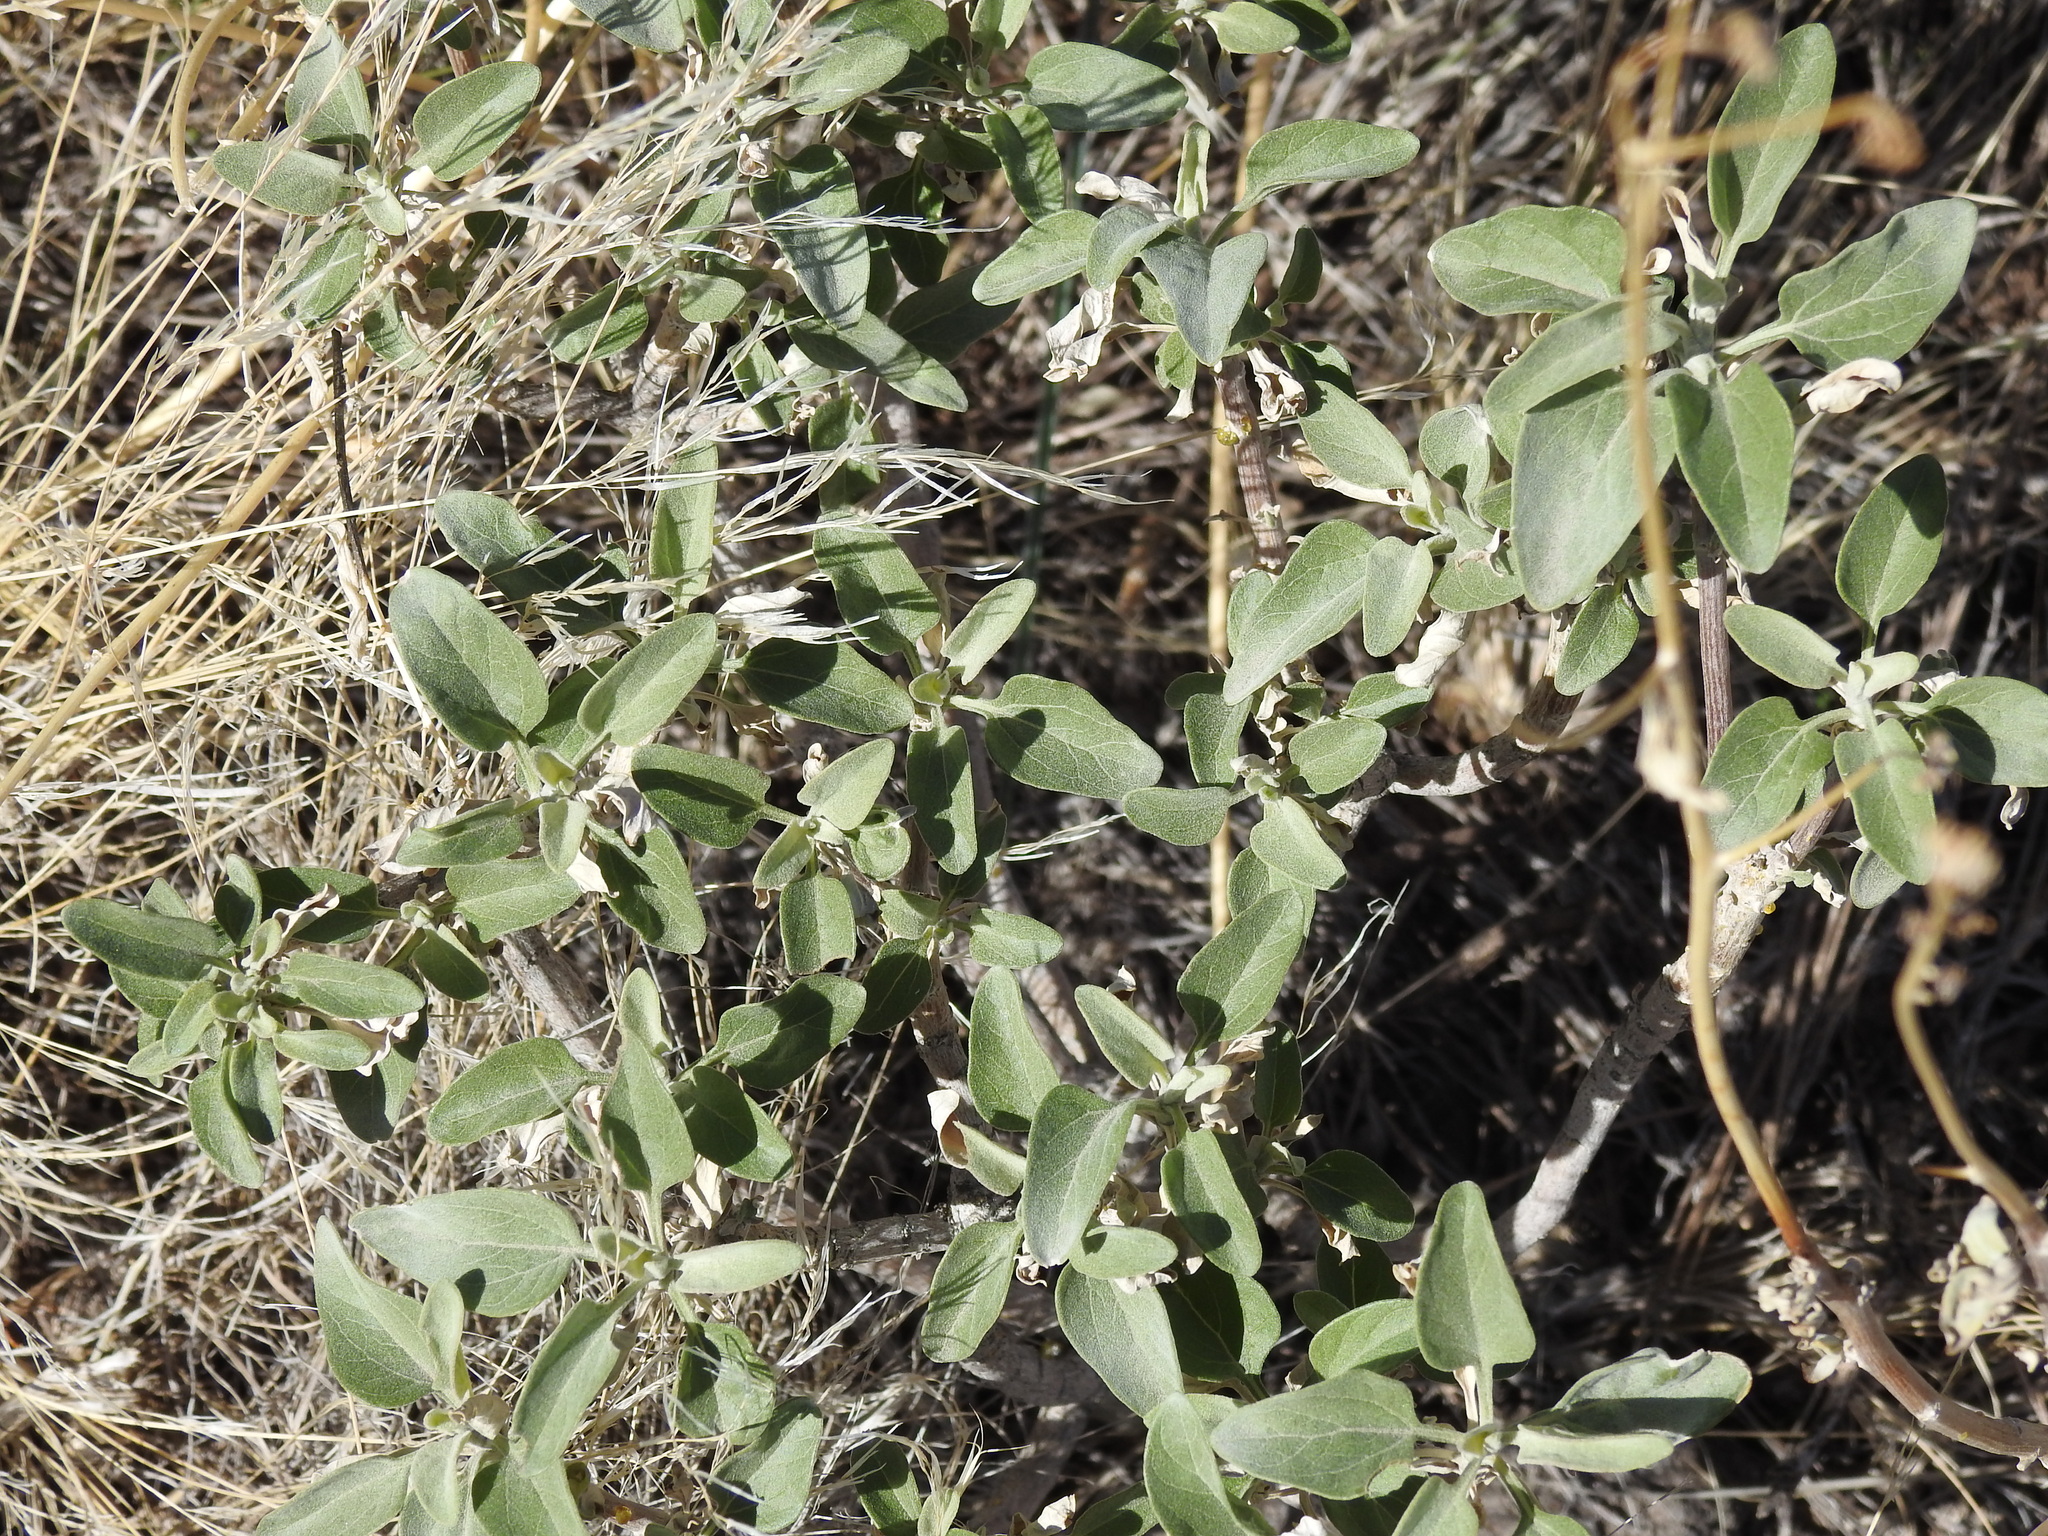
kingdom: Plantae
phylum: Tracheophyta
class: Magnoliopsida
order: Asterales
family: Asteraceae
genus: Encelia
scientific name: Encelia farinosa
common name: Brittlebush
